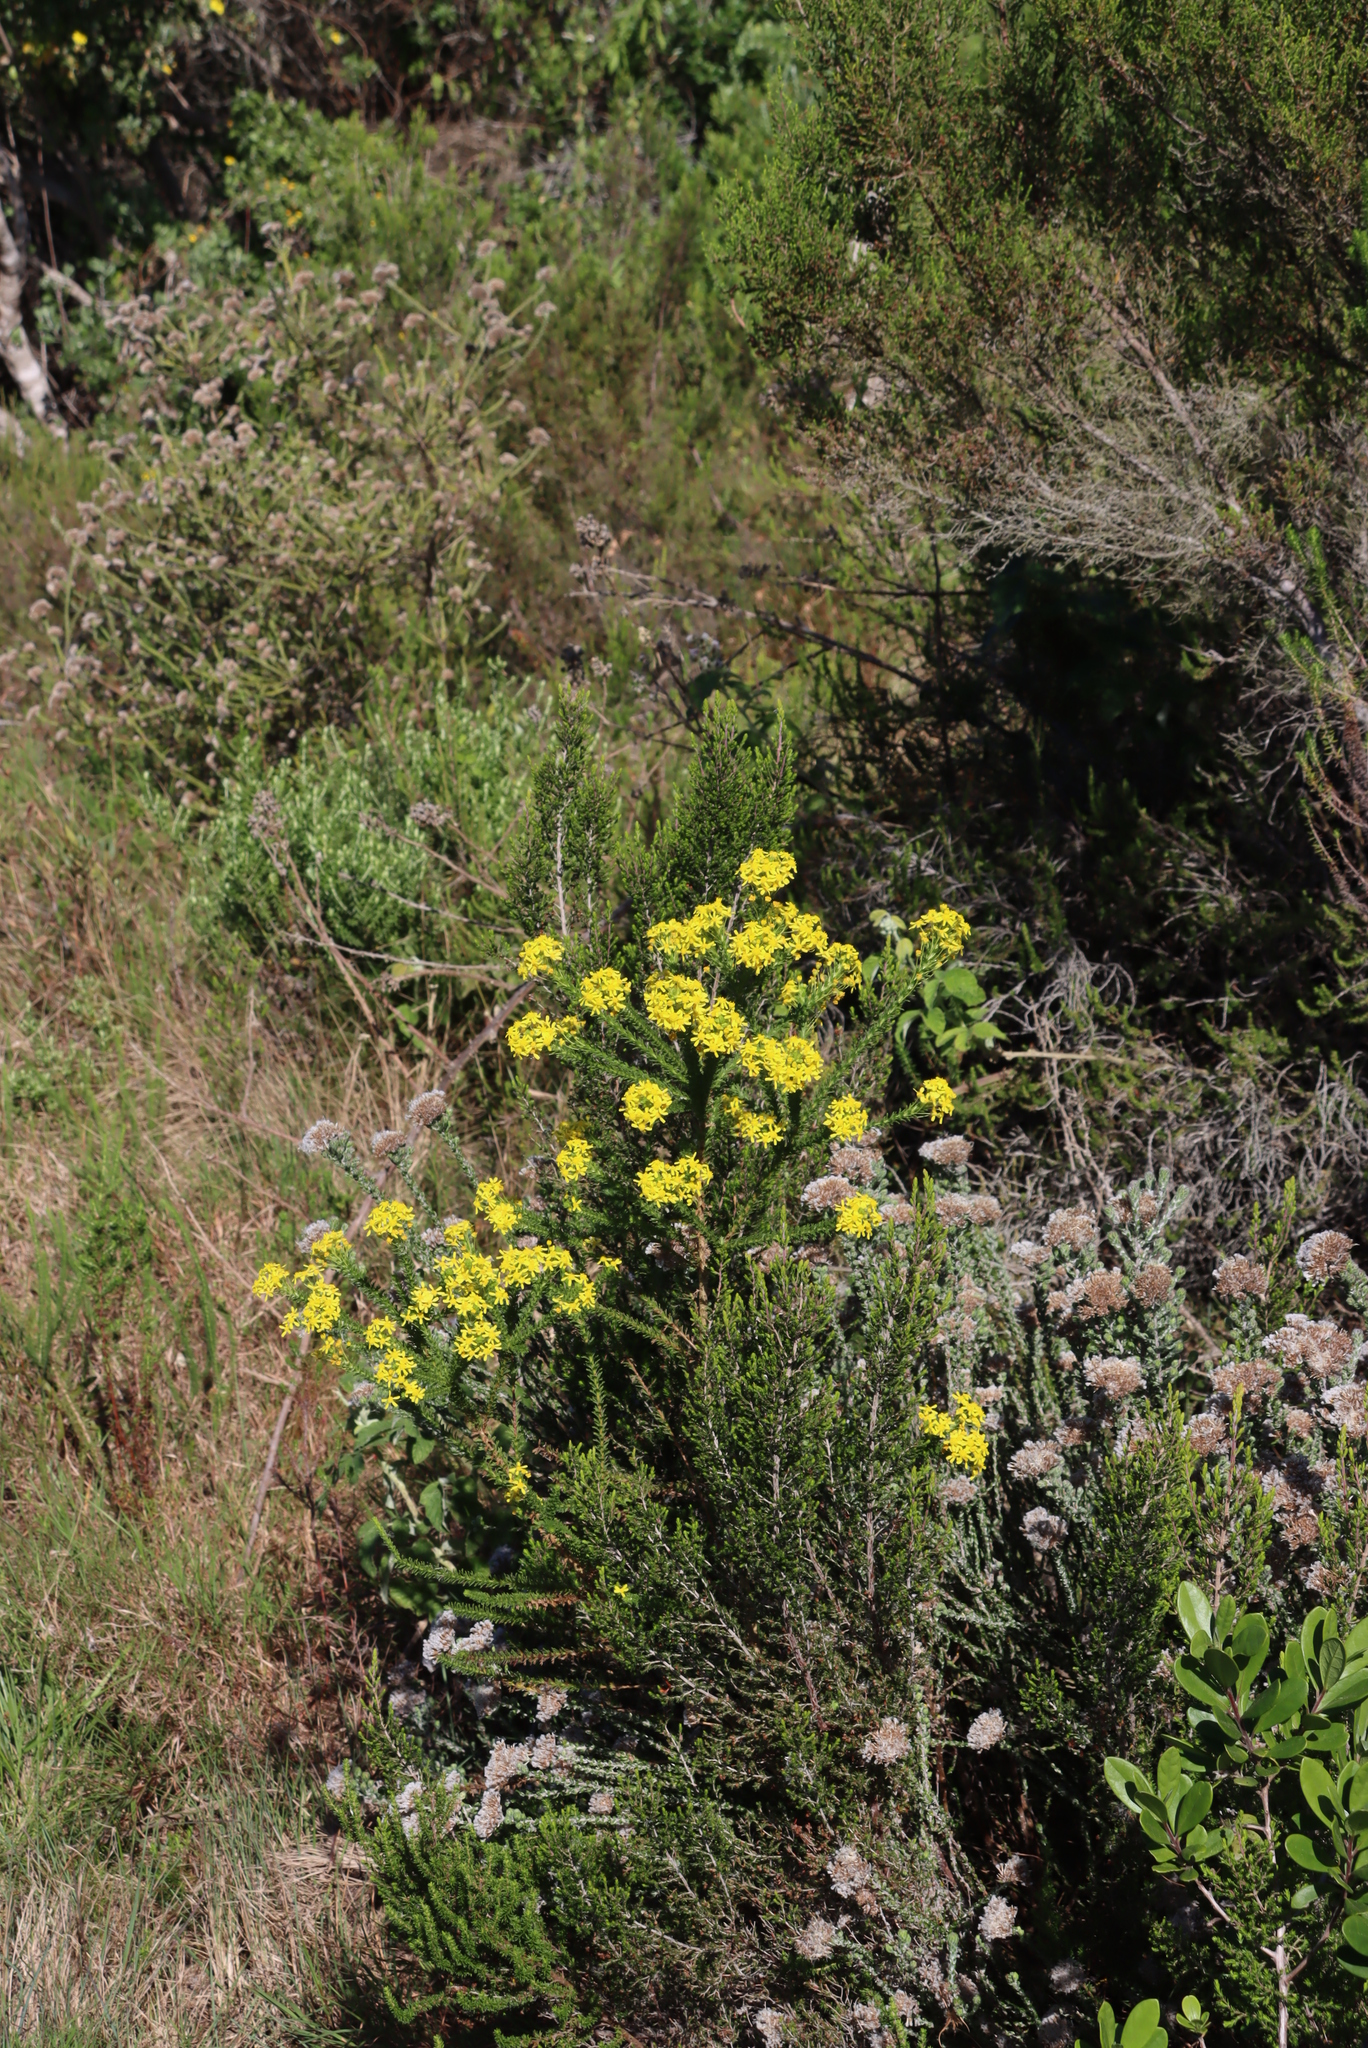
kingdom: Plantae
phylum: Tracheophyta
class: Magnoliopsida
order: Asterales
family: Asteraceae
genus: Euryops
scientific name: Euryops virgineus
